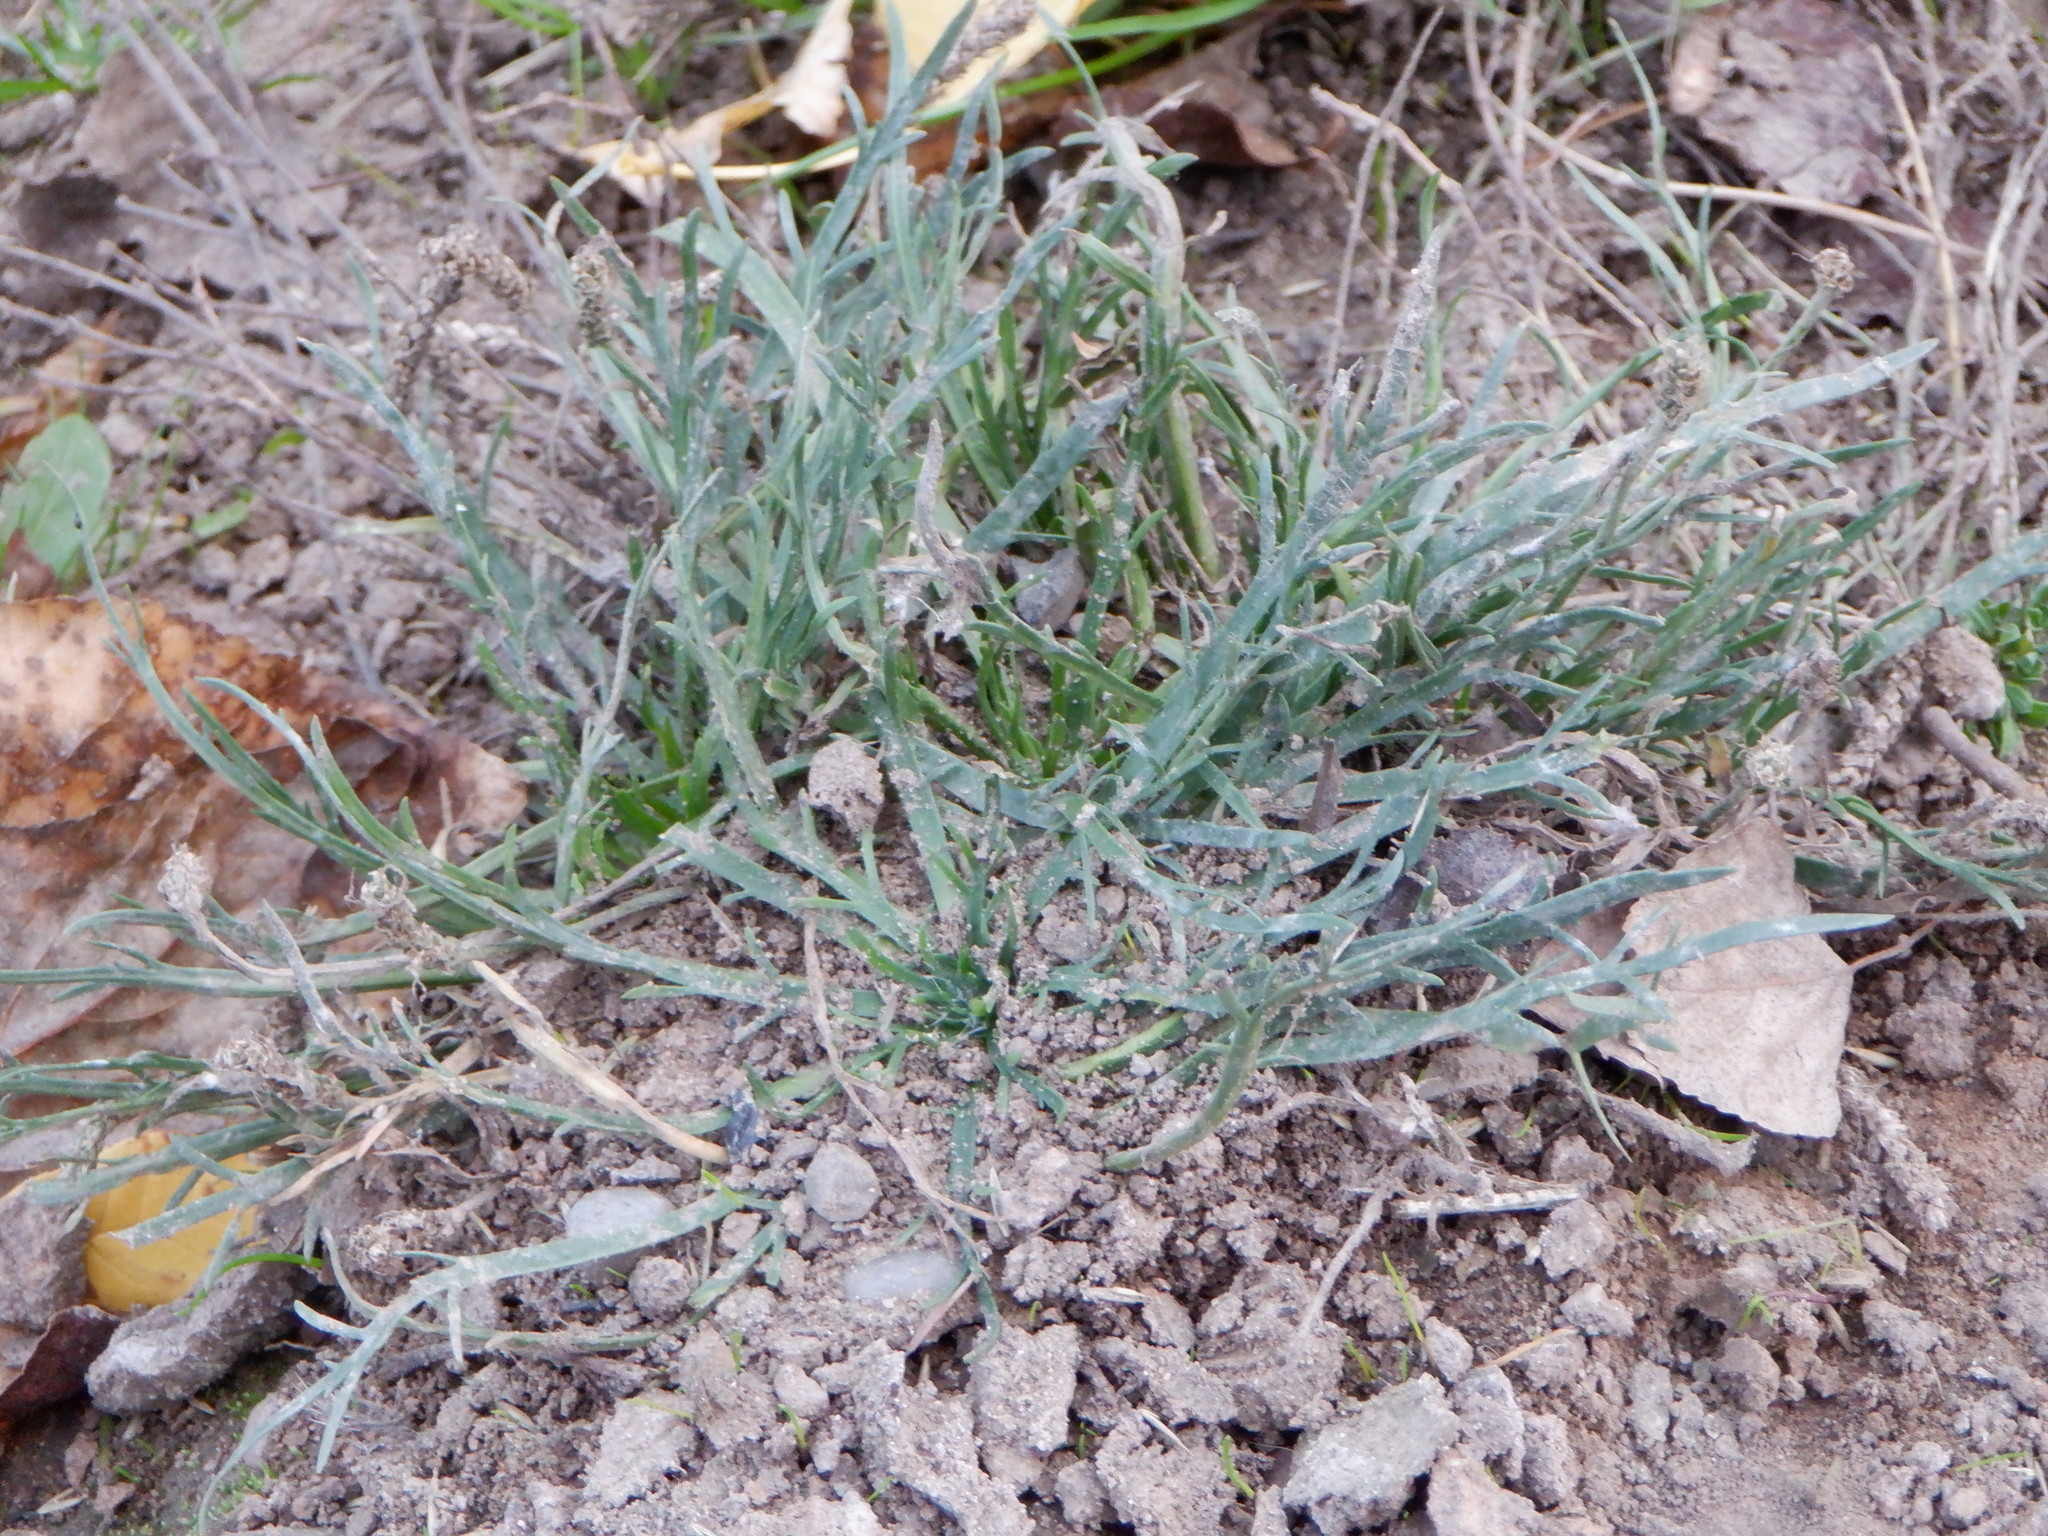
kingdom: Plantae
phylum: Tracheophyta
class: Magnoliopsida
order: Lamiales
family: Plantaginaceae
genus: Plantago
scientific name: Plantago coronopus
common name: Buck's-horn plantain
